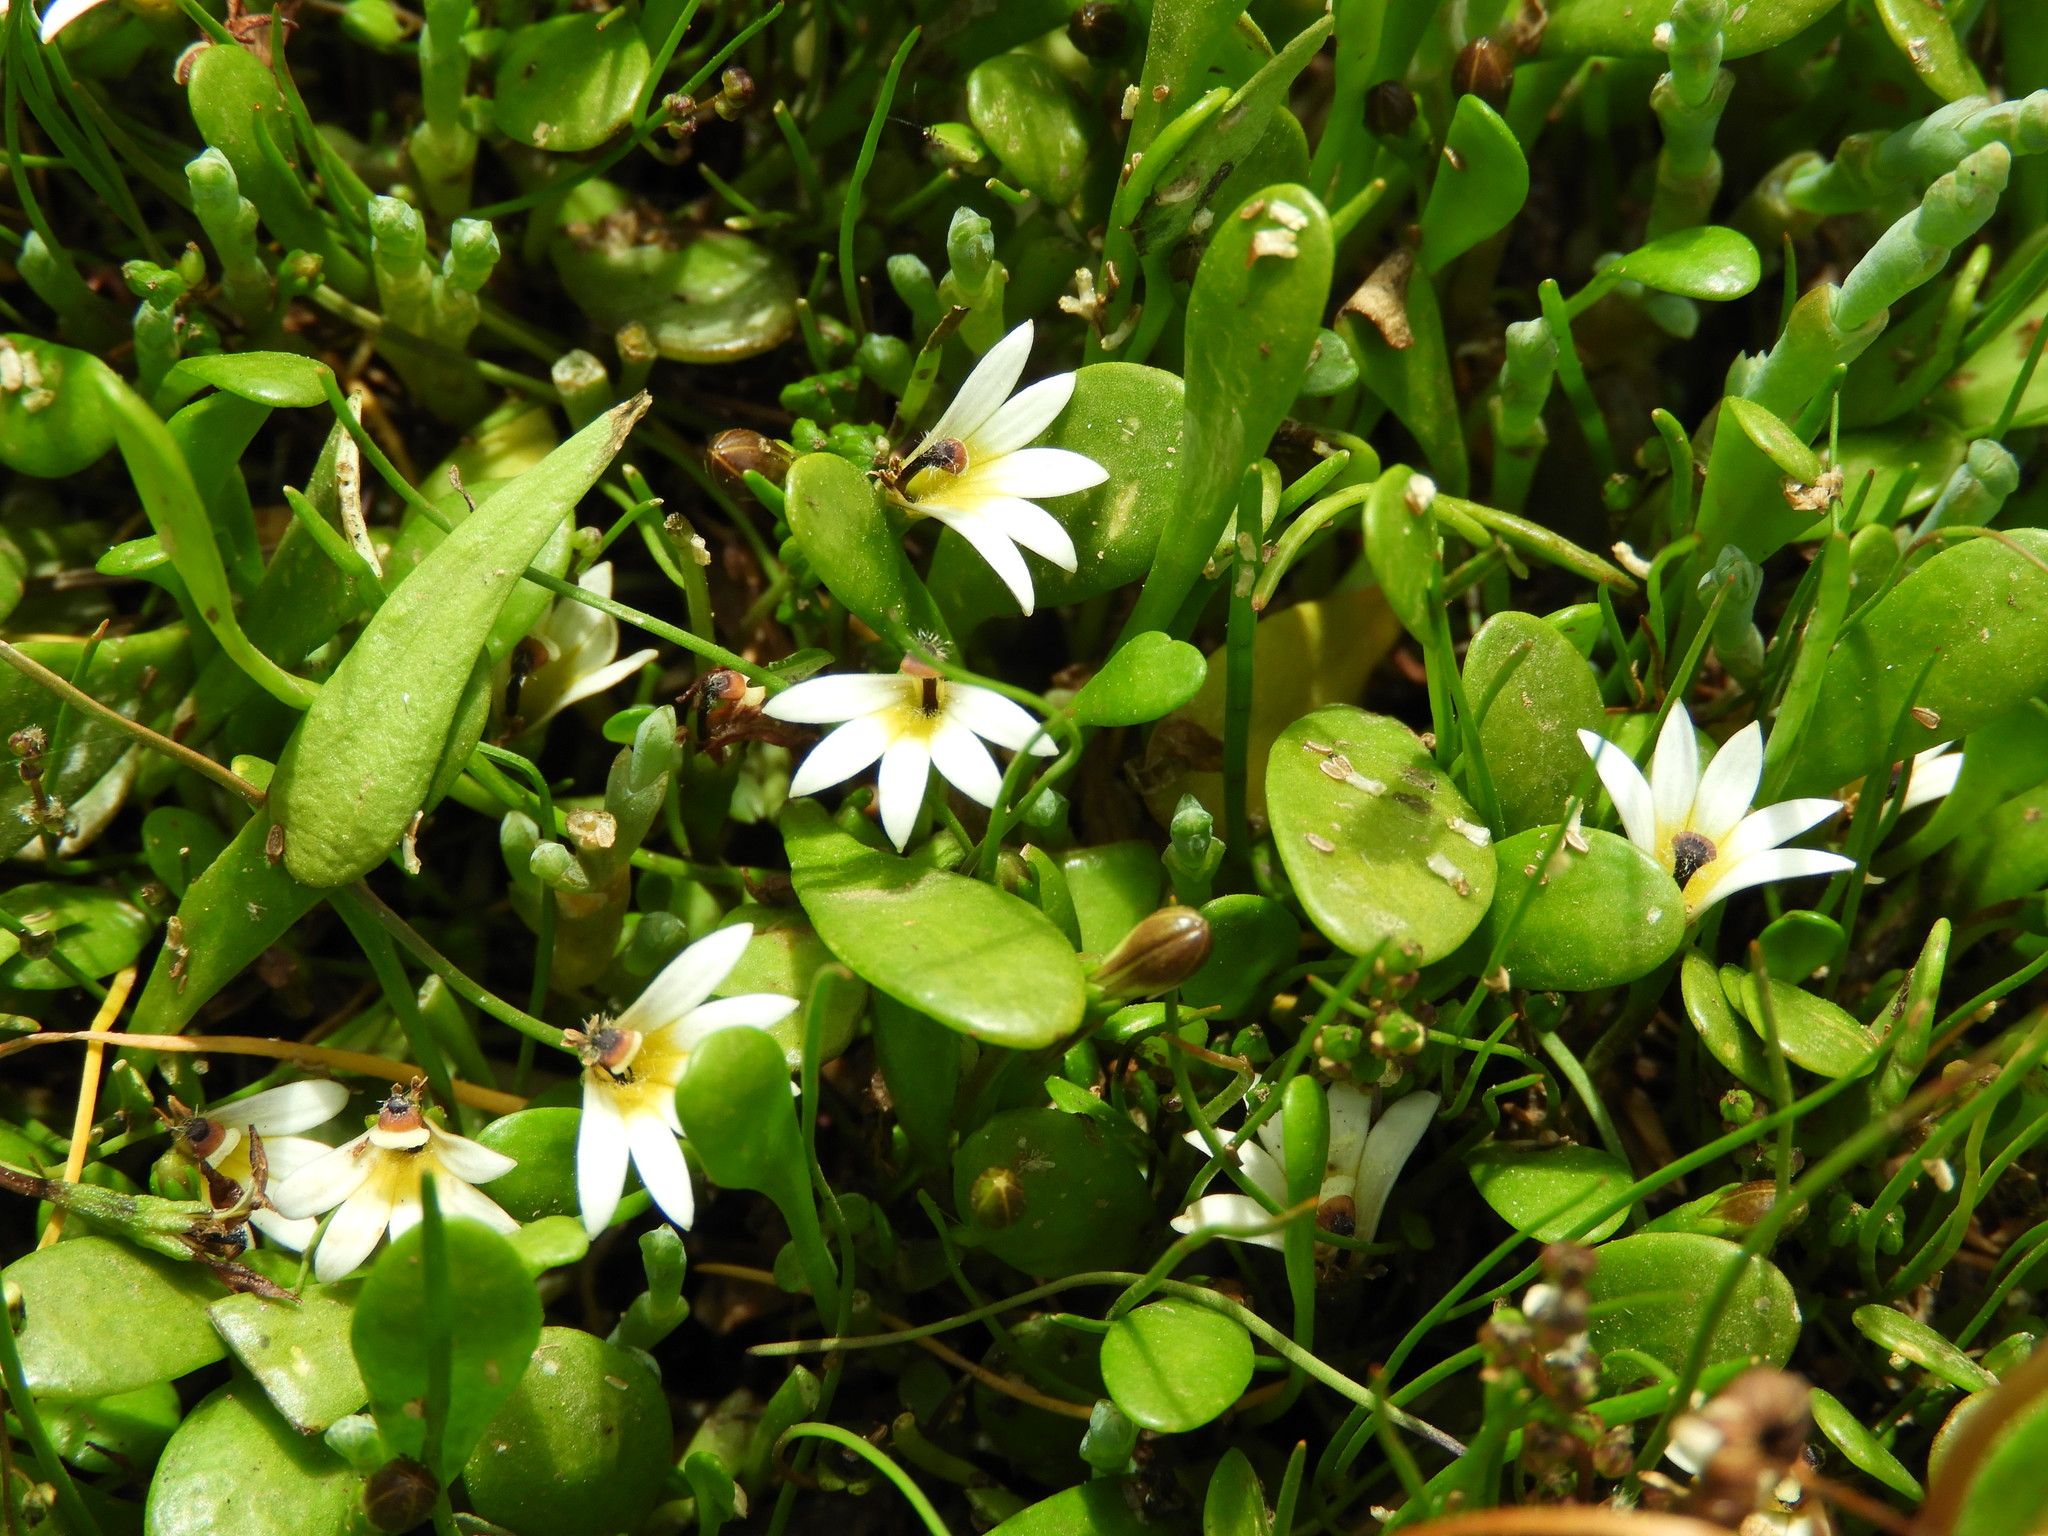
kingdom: Plantae
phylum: Tracheophyta
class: Magnoliopsida
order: Asterales
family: Goodeniaceae
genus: Goodenia
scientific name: Goodenia radicans
